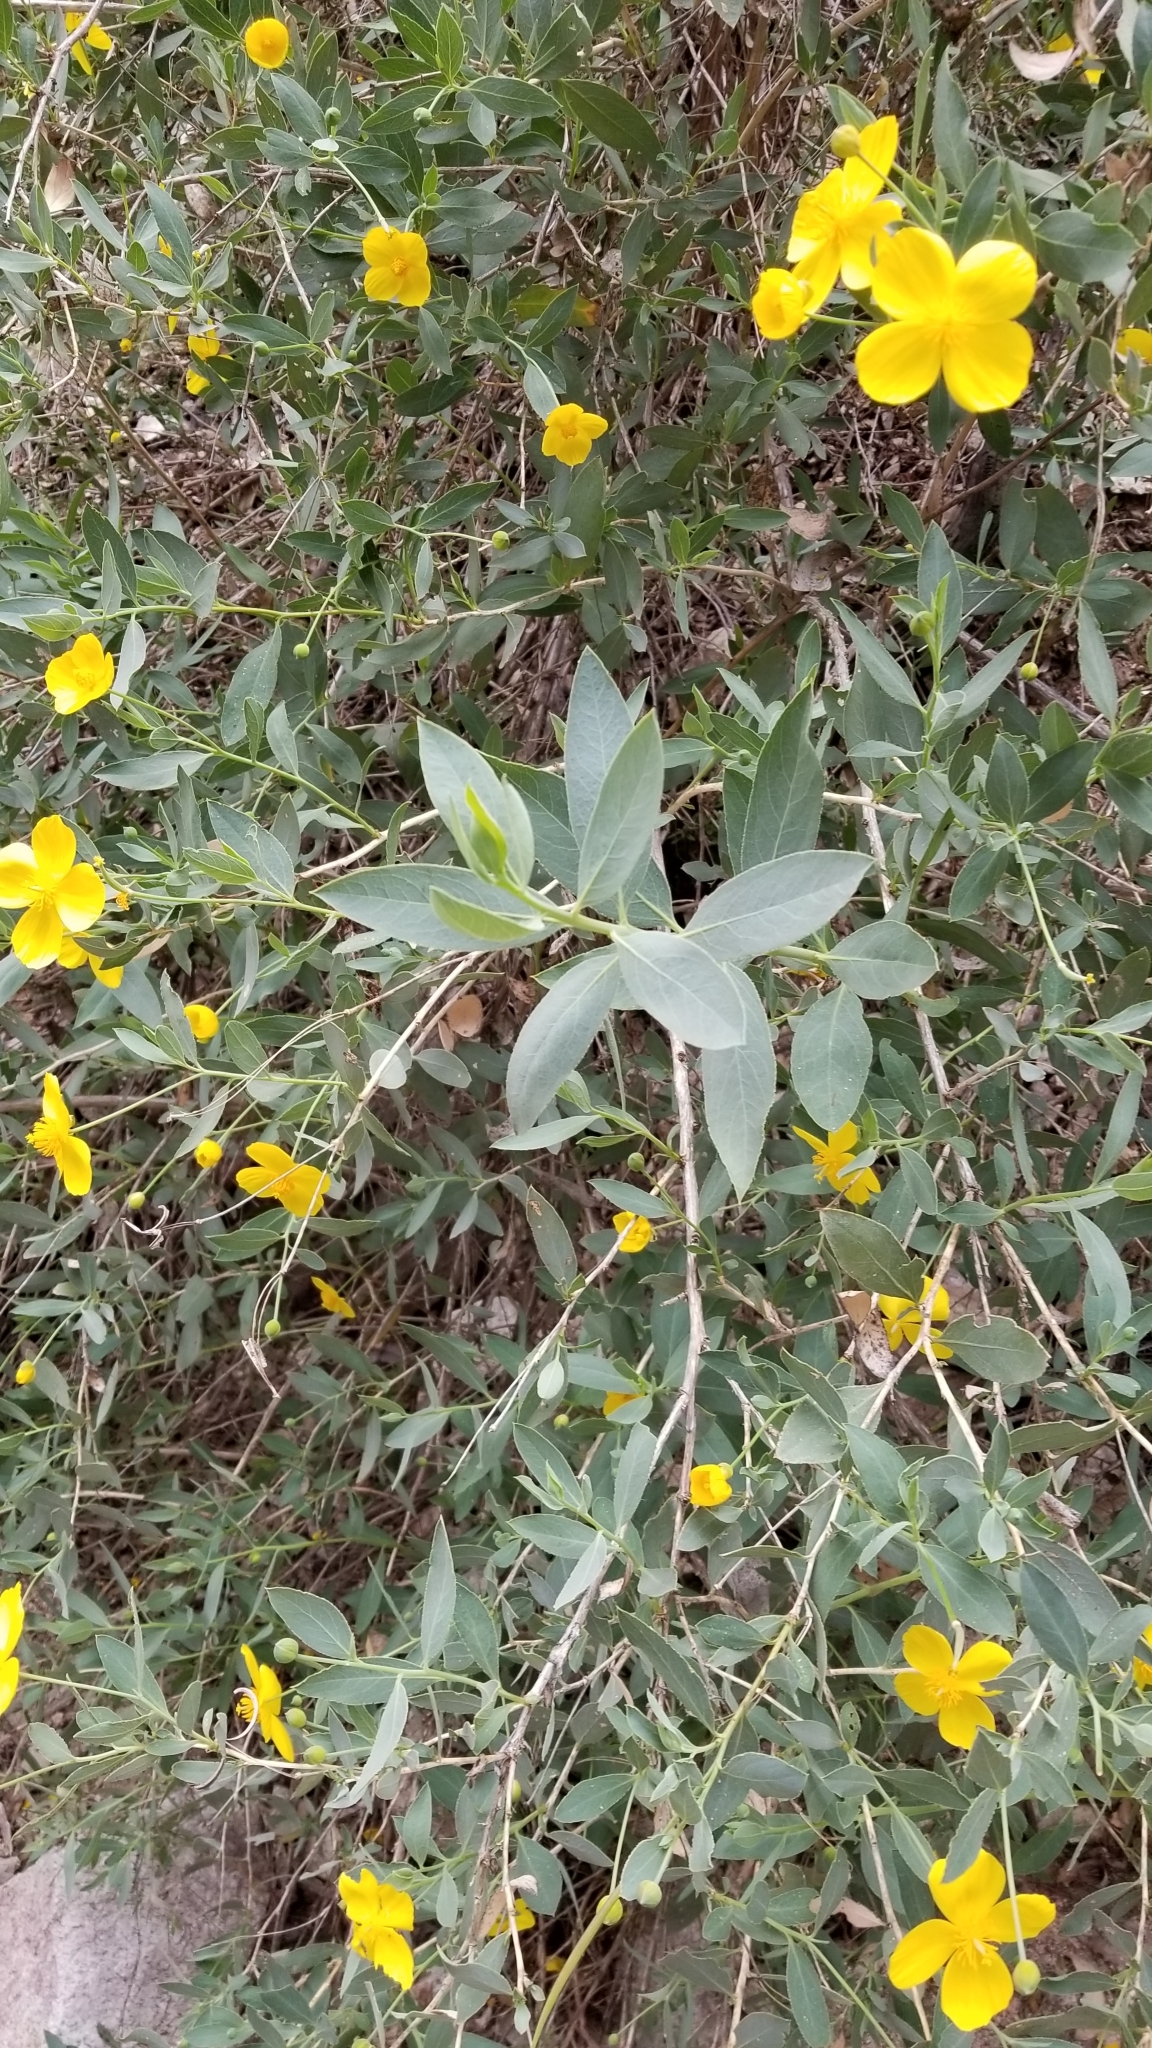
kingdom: Plantae
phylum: Tracheophyta
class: Magnoliopsida
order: Ranunculales
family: Papaveraceae
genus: Dendromecon
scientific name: Dendromecon rigida
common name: Tree poppy
